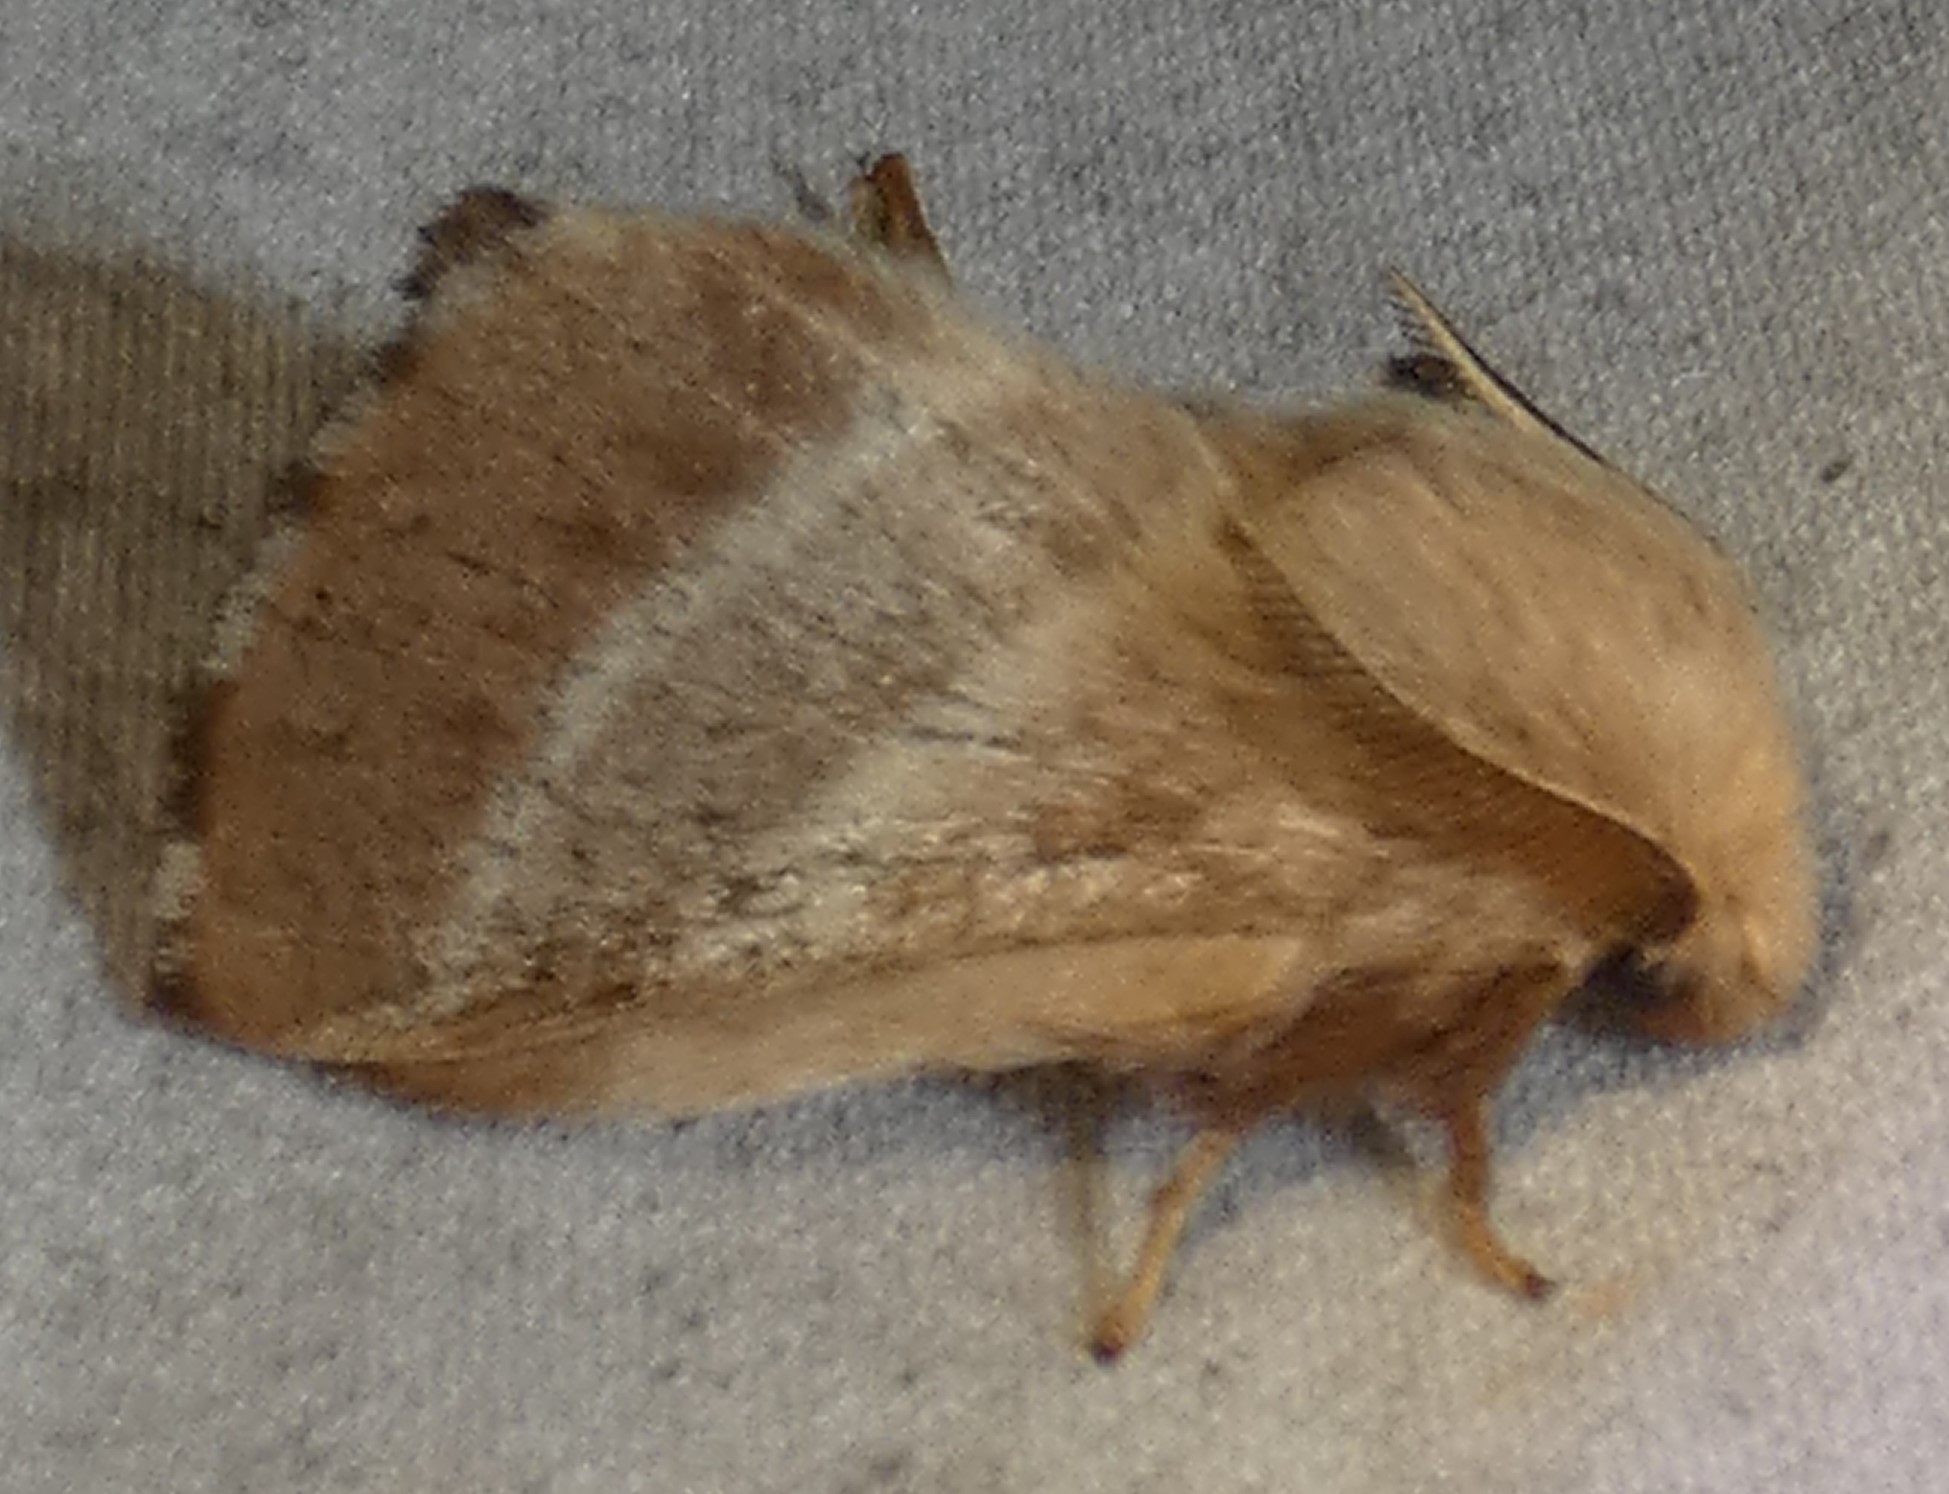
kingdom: Animalia
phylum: Arthropoda
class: Insecta
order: Lepidoptera
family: Lasiocampidae
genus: Malacosoma
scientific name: Malacosoma americana
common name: Eastern tent caterpillar moth
